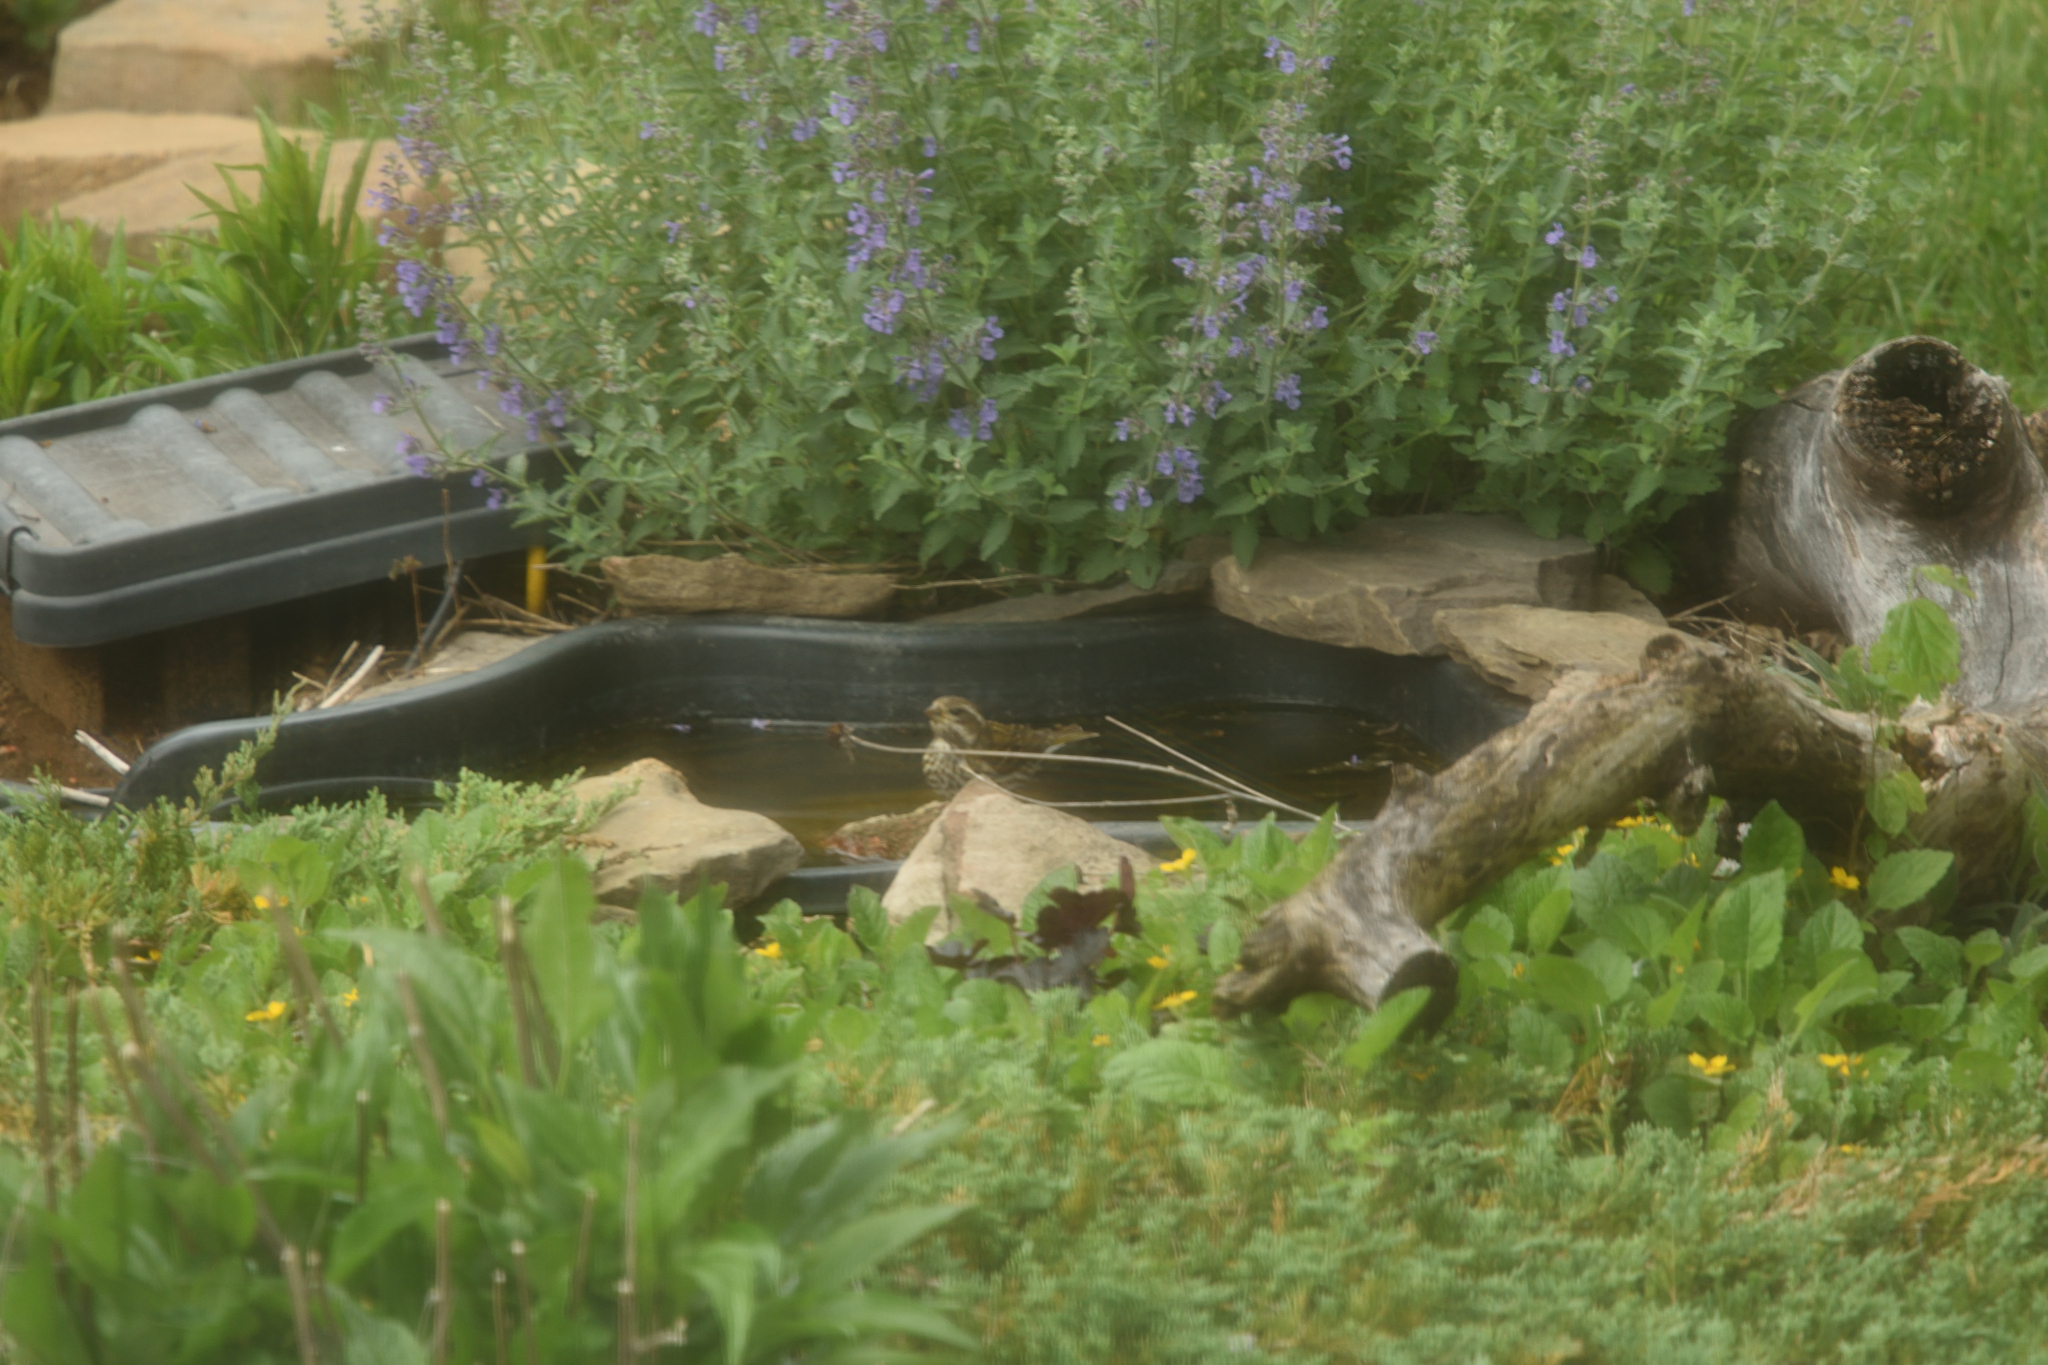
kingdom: Animalia
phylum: Chordata
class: Aves
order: Passeriformes
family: Fringillidae
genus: Haemorhous
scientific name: Haemorhous purpureus
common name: Purple finch
